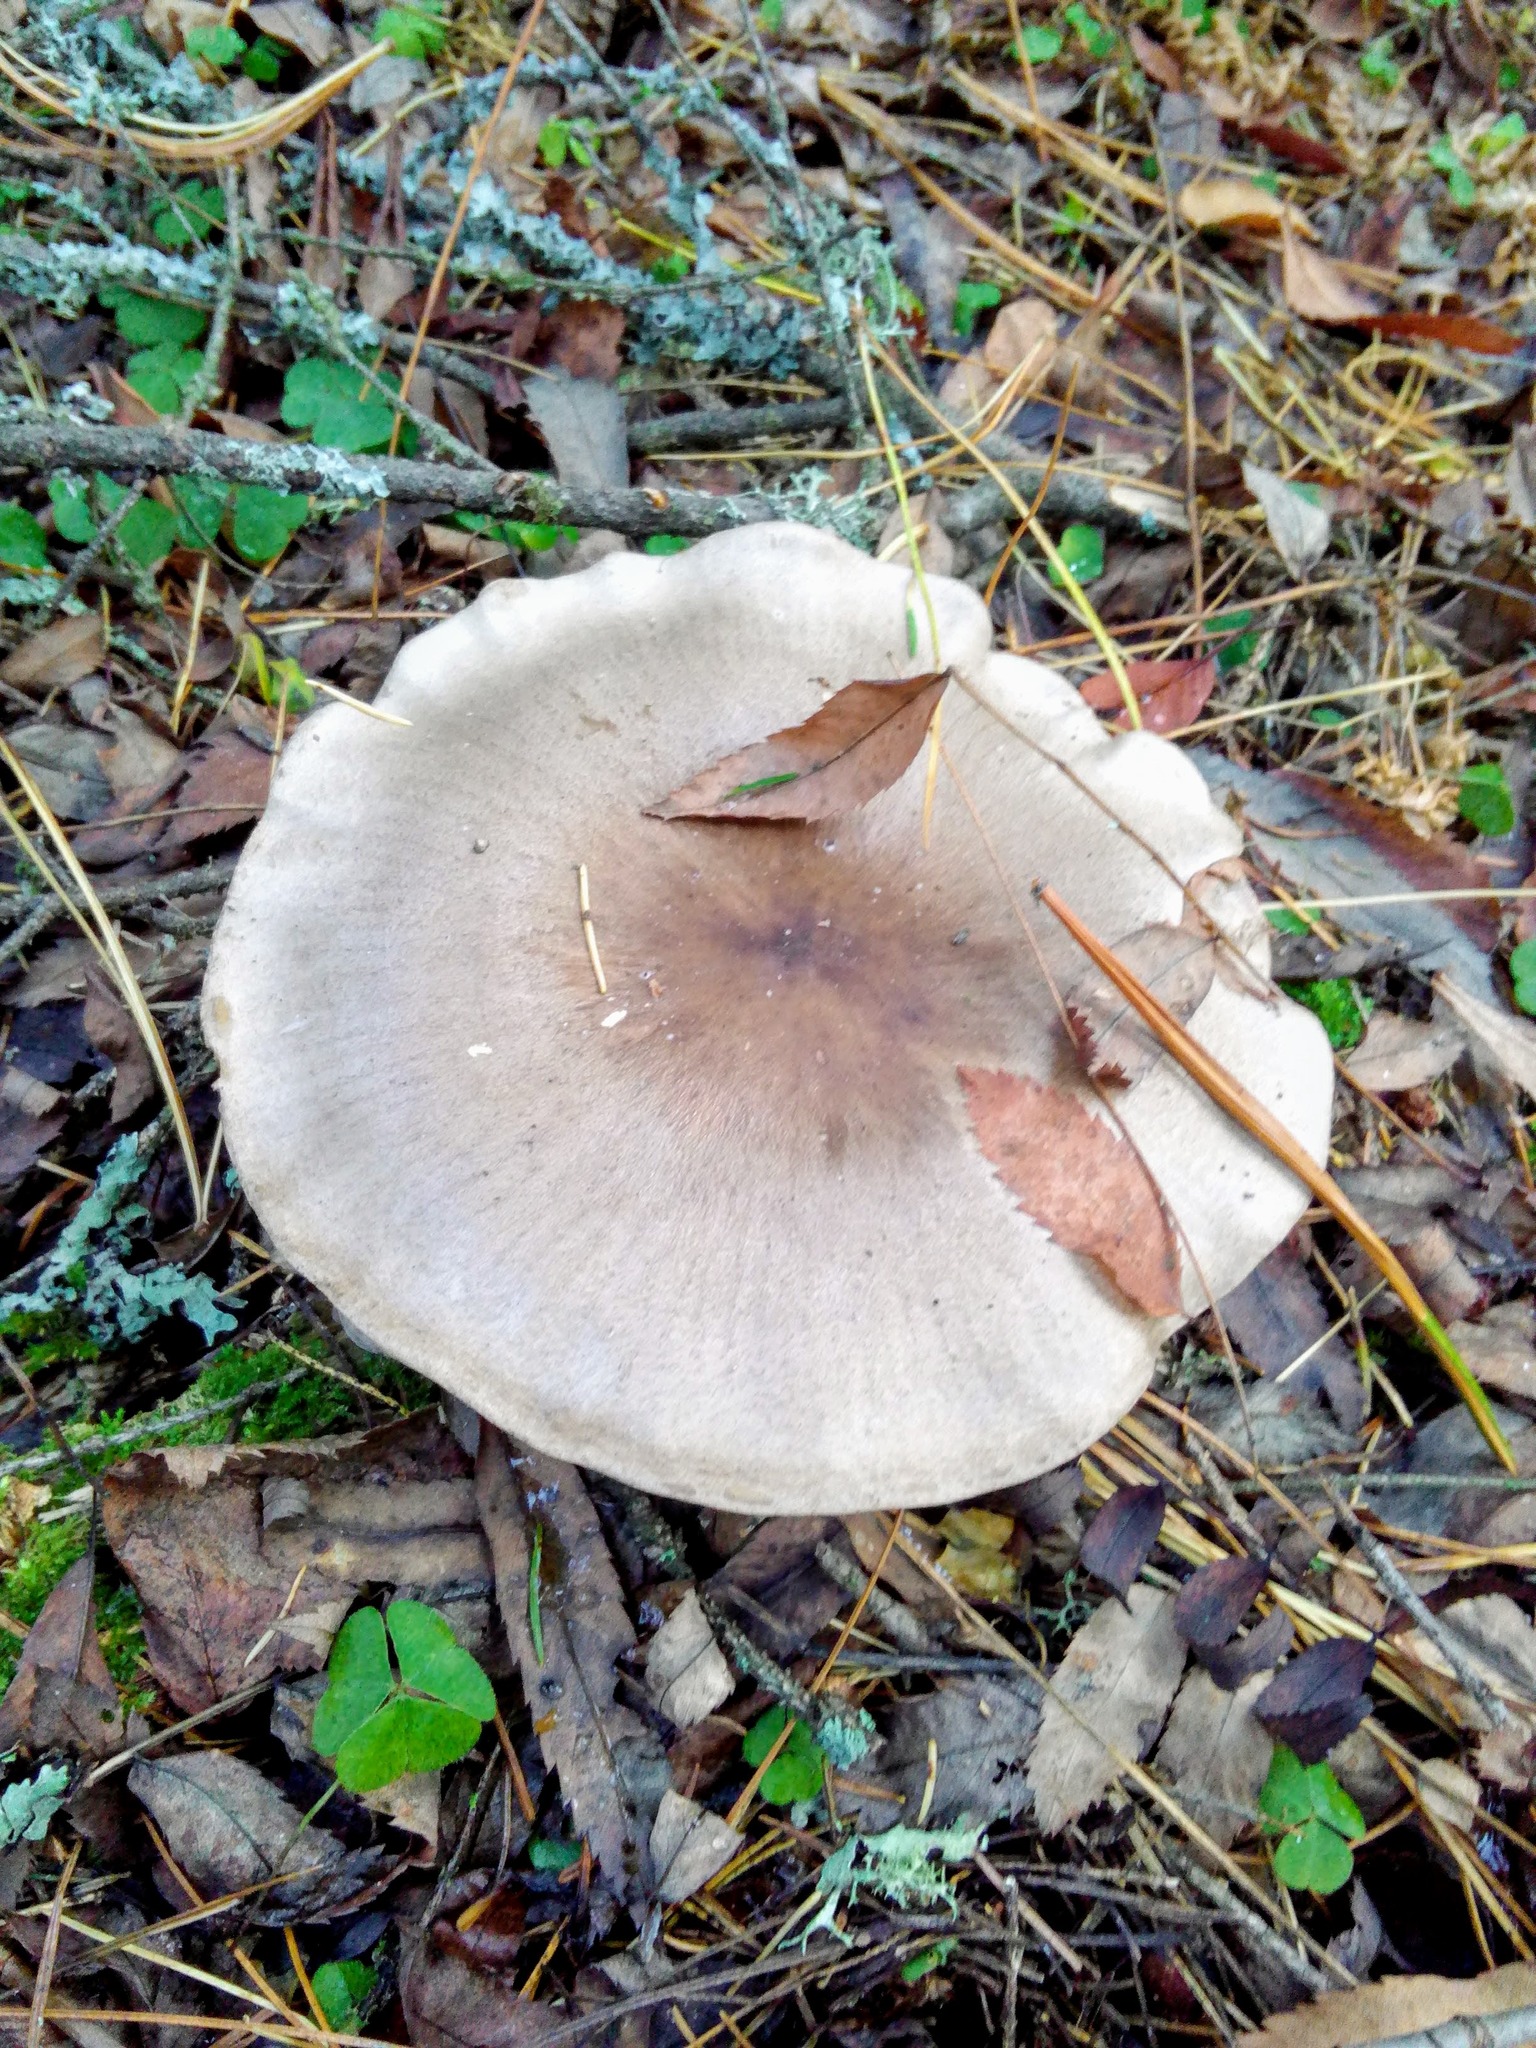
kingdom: Fungi
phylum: Basidiomycota
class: Agaricomycetes
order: Agaricales
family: Tricholomataceae
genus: Clitocybe
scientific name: Clitocybe nebularis
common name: Clouded agaric
